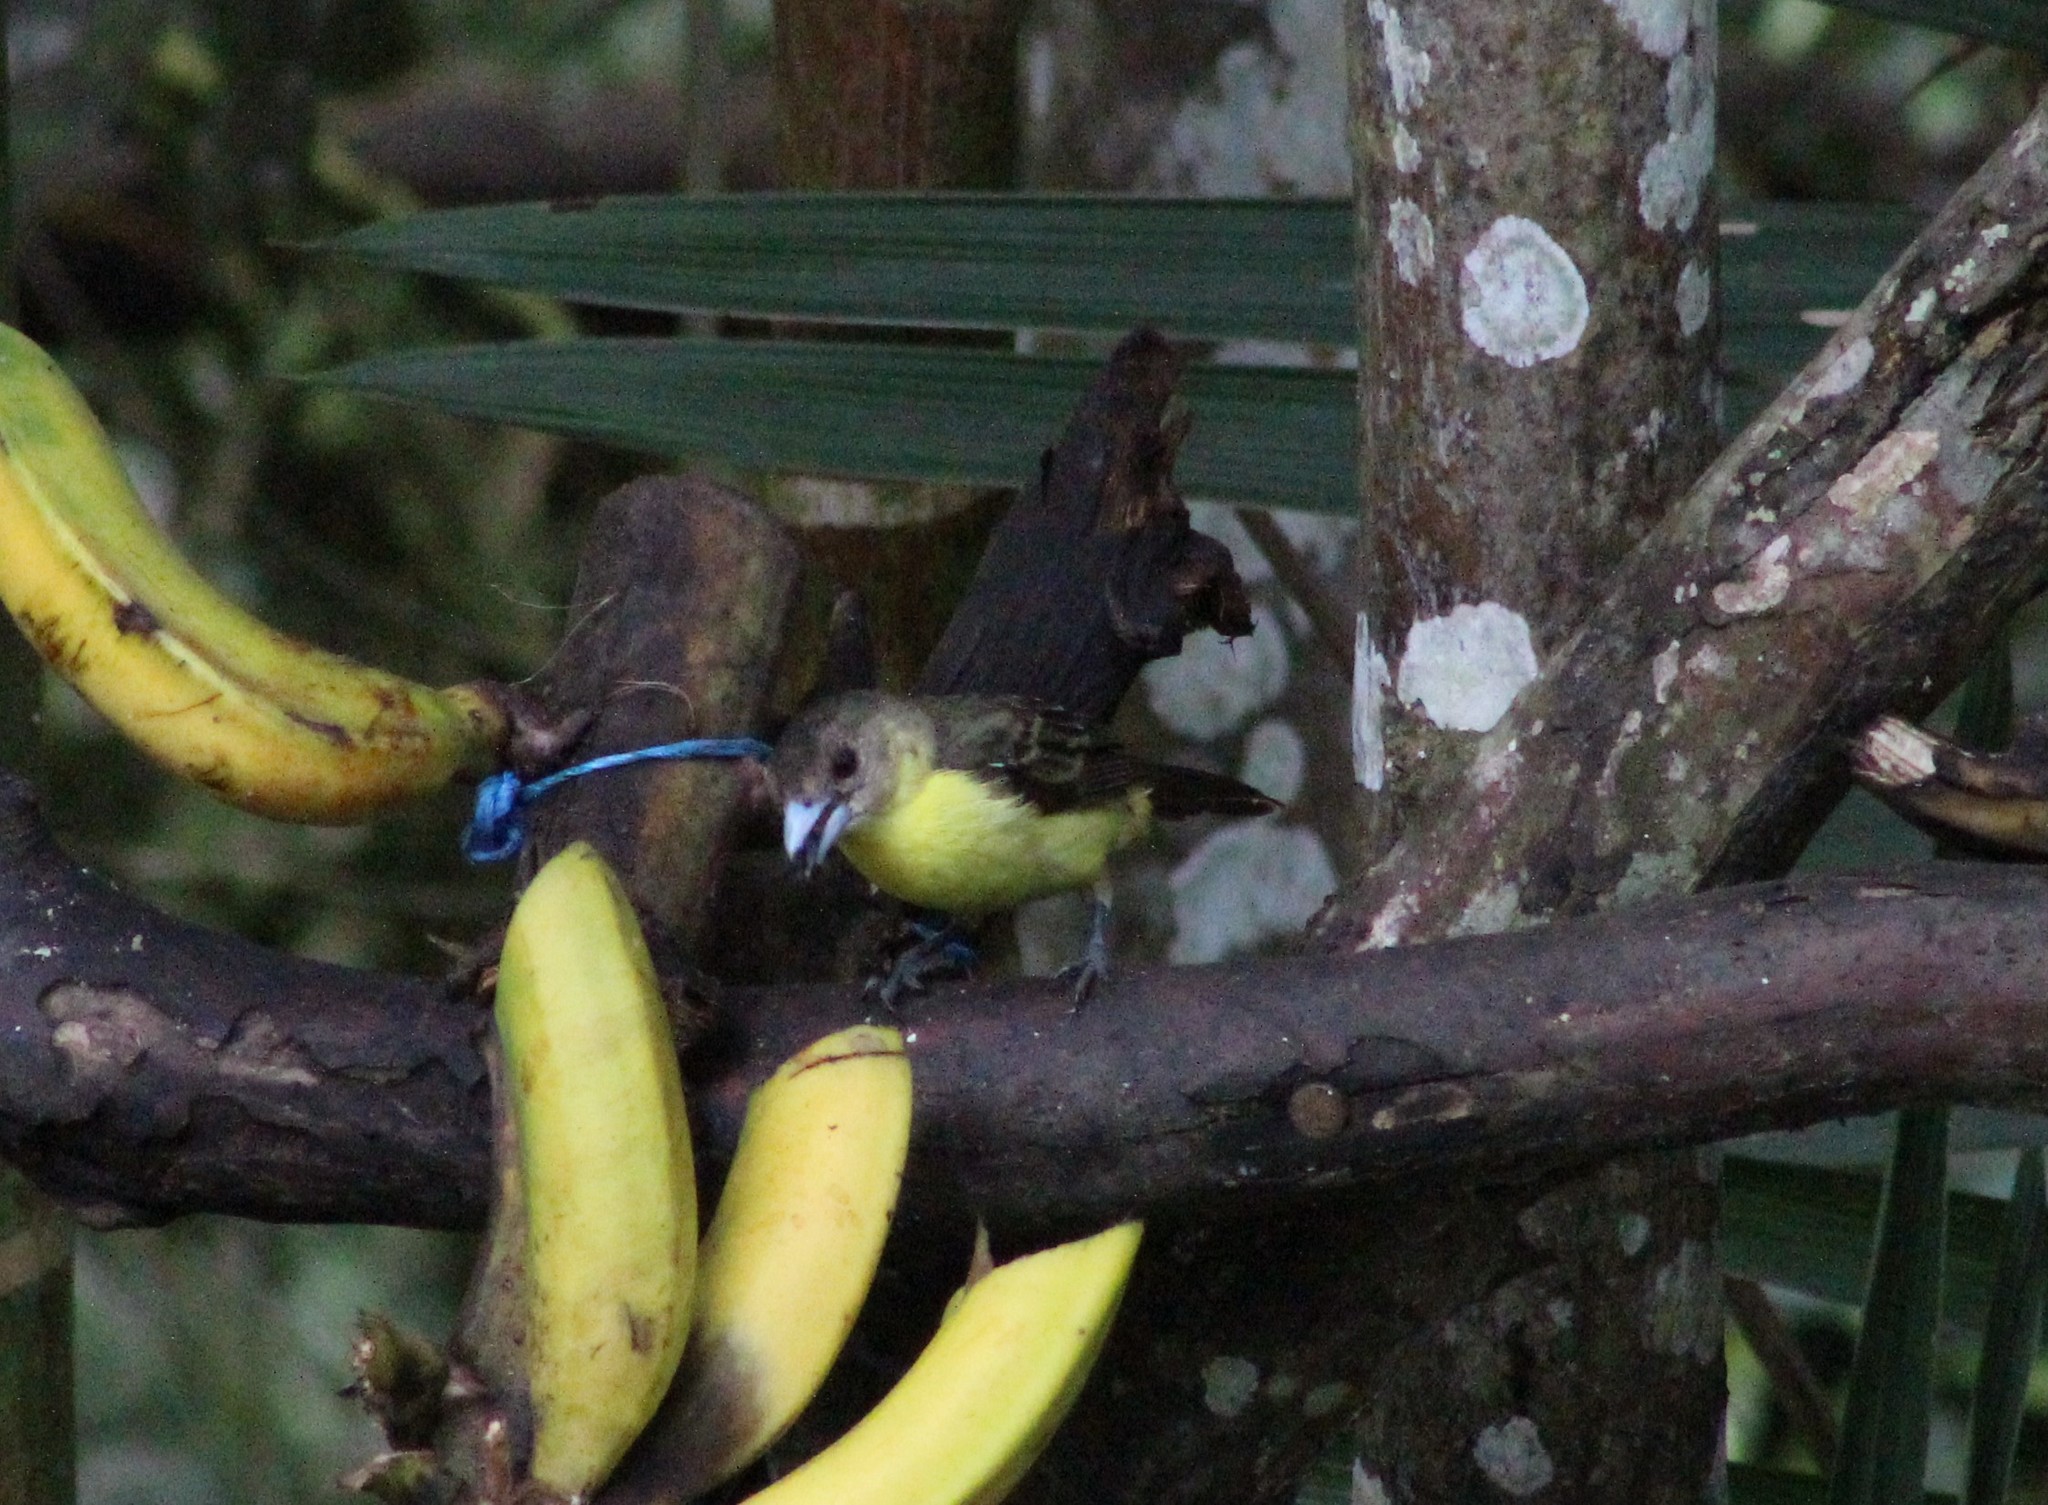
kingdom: Animalia
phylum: Chordata
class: Aves
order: Passeriformes
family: Thraupidae
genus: Ramphocelus
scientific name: Ramphocelus icteronotus
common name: Lemon-rumped tanager
